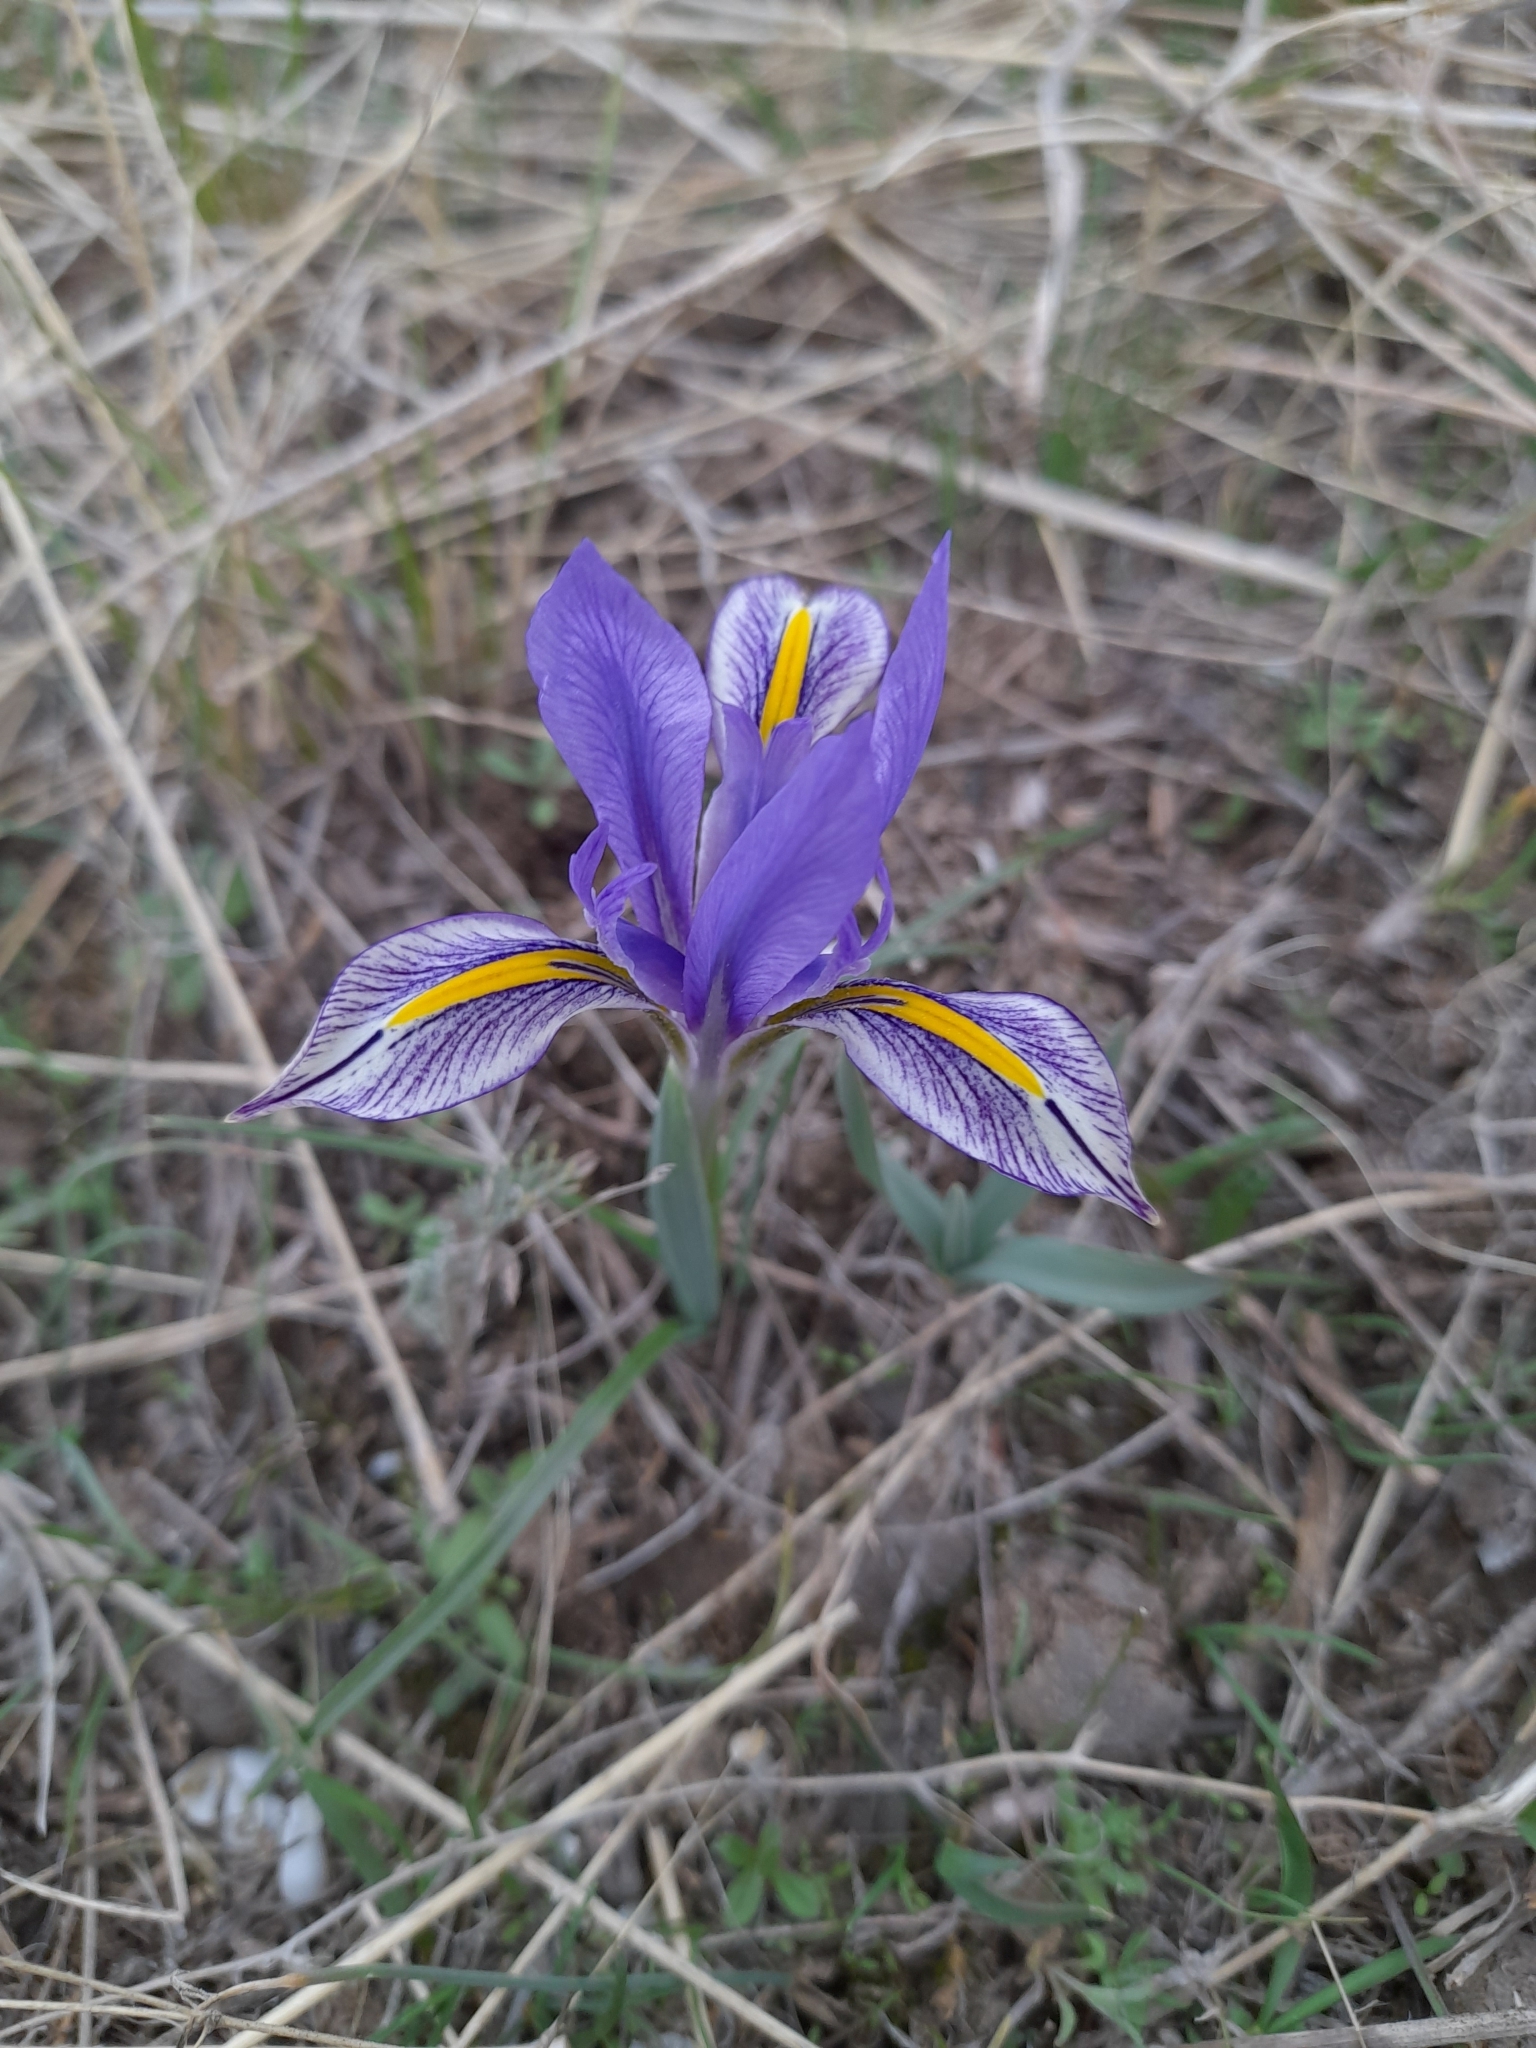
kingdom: Plantae
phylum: Tracheophyta
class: Liliopsida
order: Asparagales
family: Iridaceae
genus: Iris
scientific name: Iris kolpakowskiana
